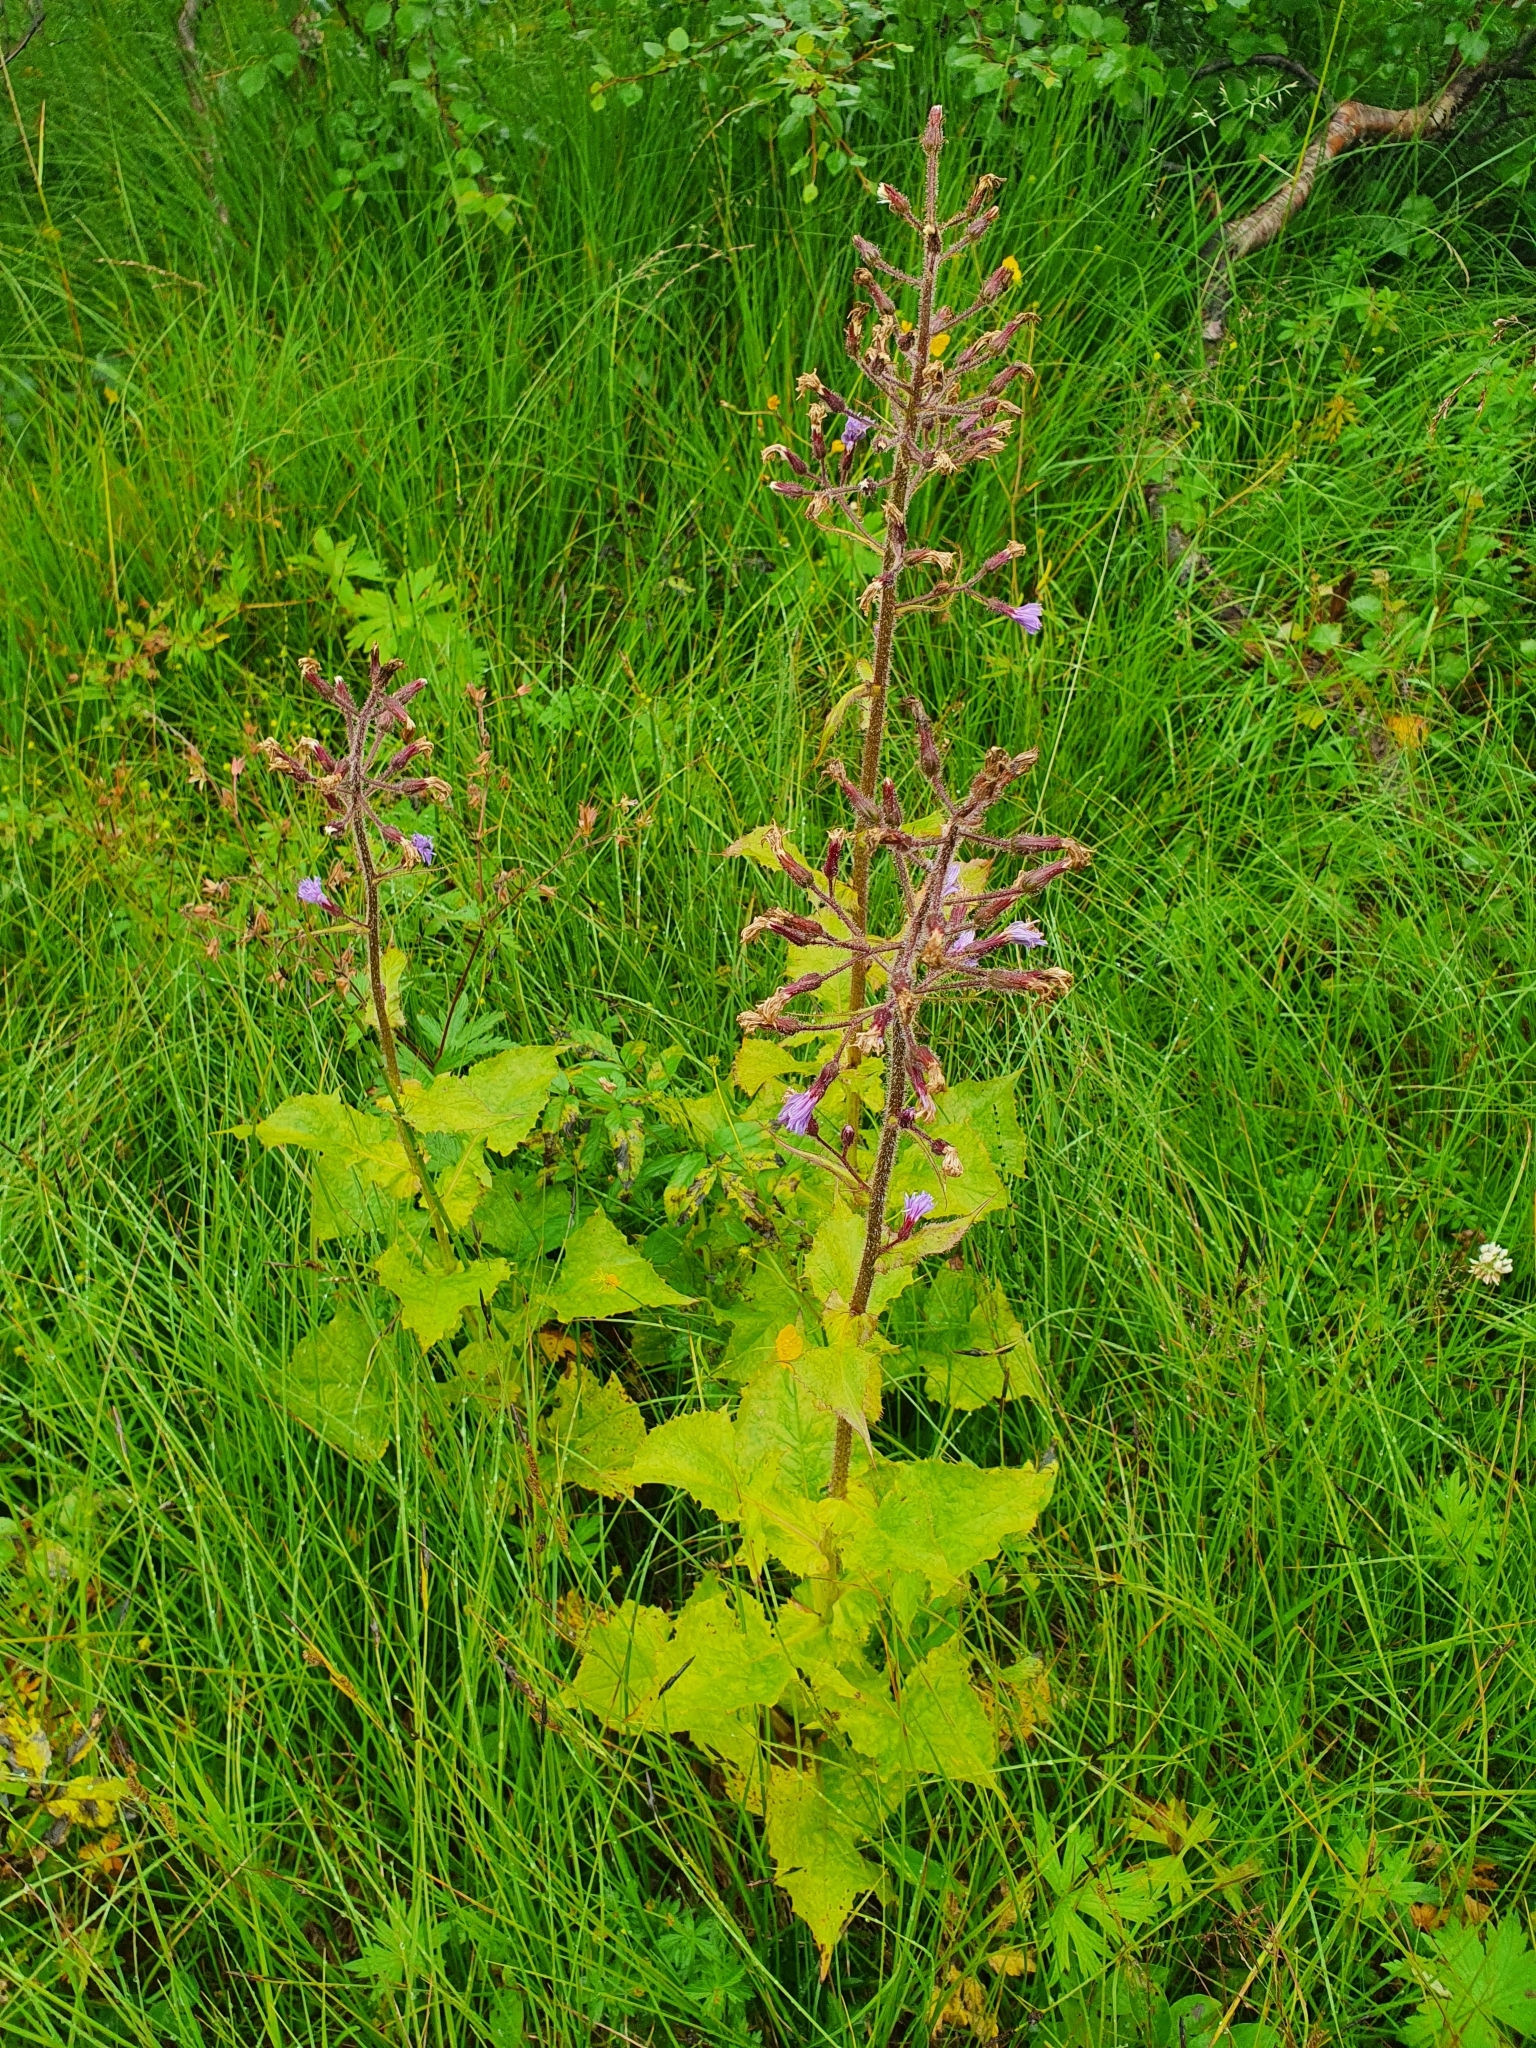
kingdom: Plantae
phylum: Tracheophyta
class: Magnoliopsida
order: Asterales
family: Asteraceae
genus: Cicerbita
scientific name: Cicerbita alpina
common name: Alpine blue-sow-thistle
